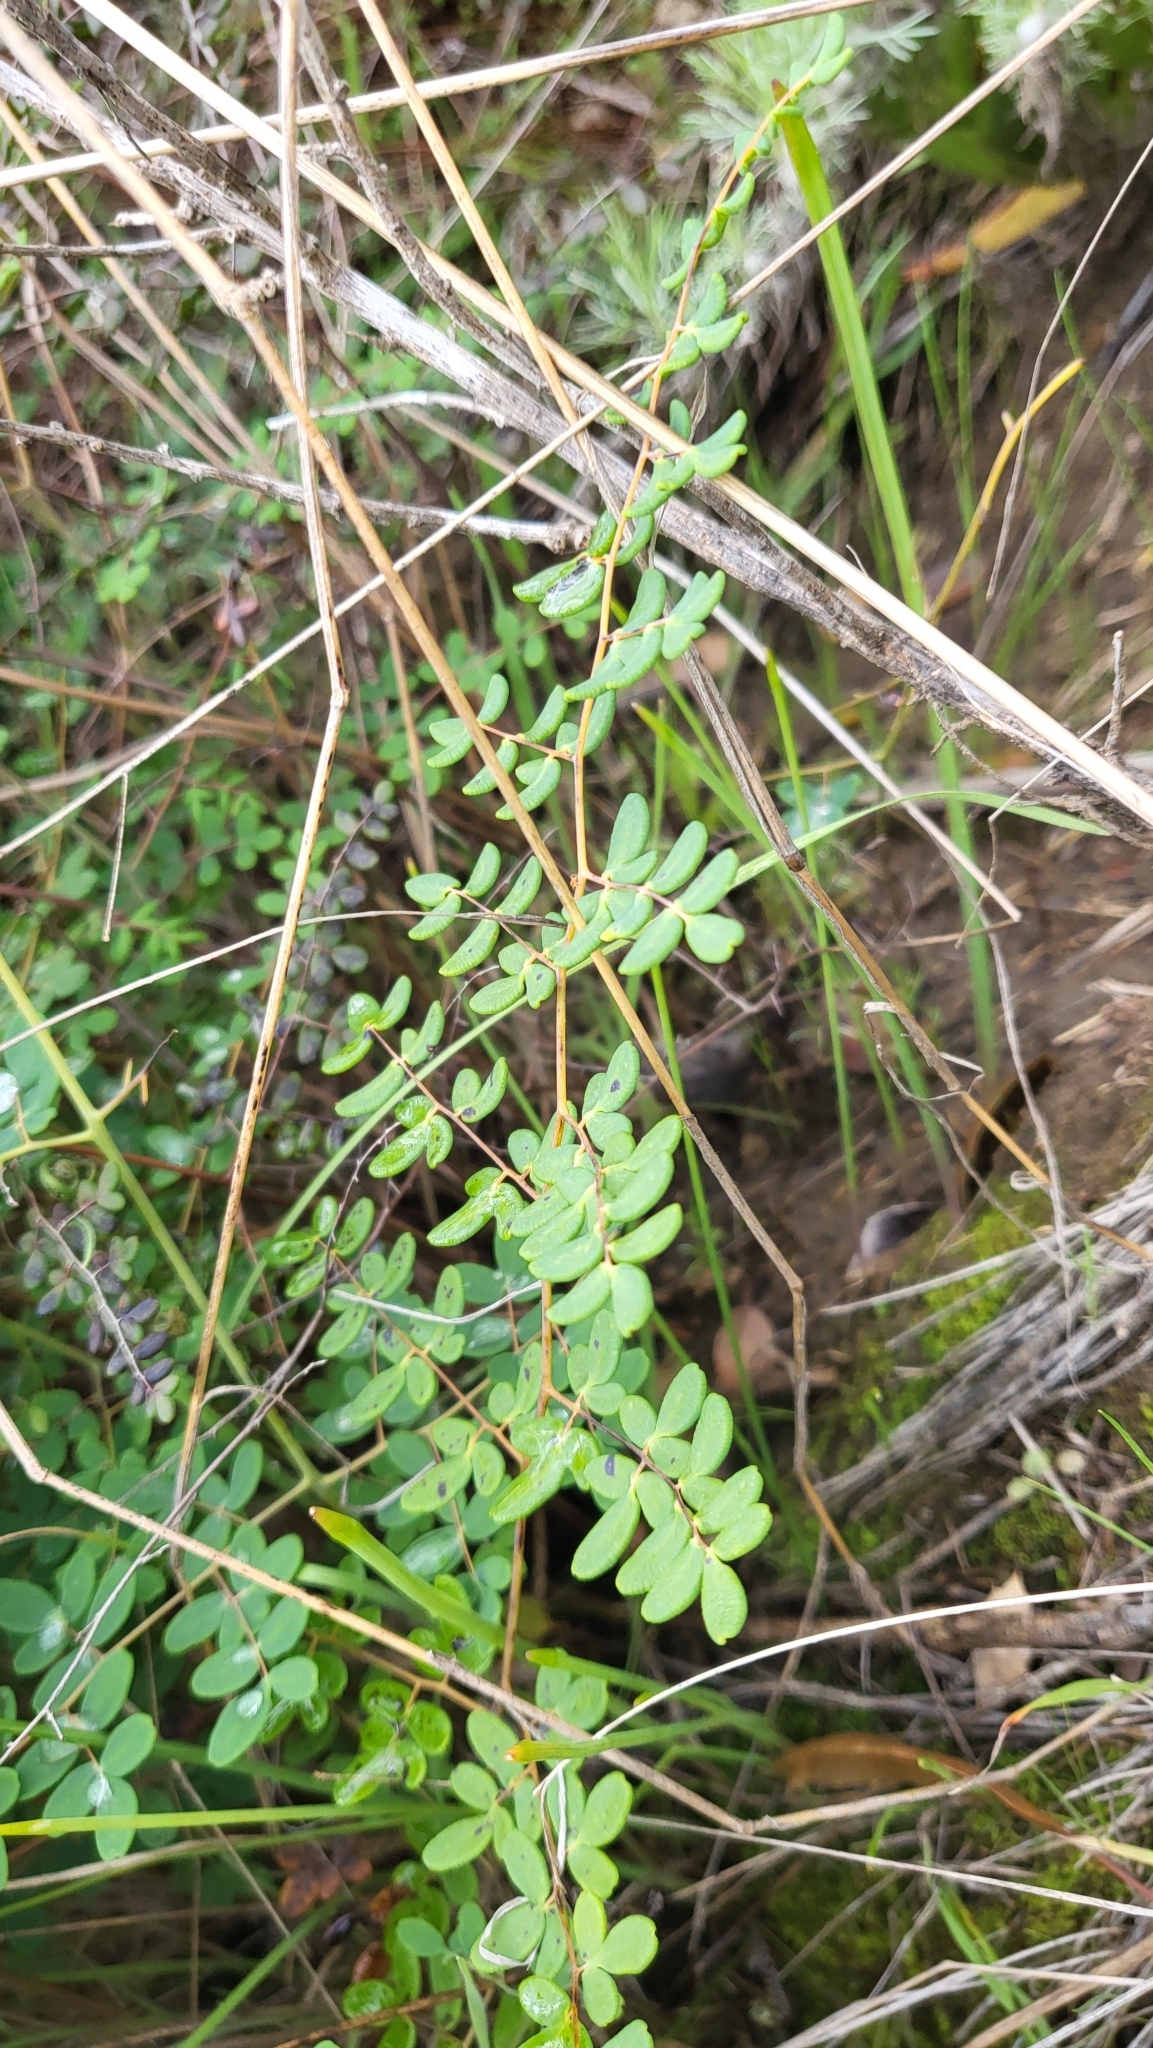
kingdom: Plantae
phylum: Tracheophyta
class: Polypodiopsida
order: Polypodiales
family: Pteridaceae
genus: Pellaea
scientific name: Pellaea andromedifolia
